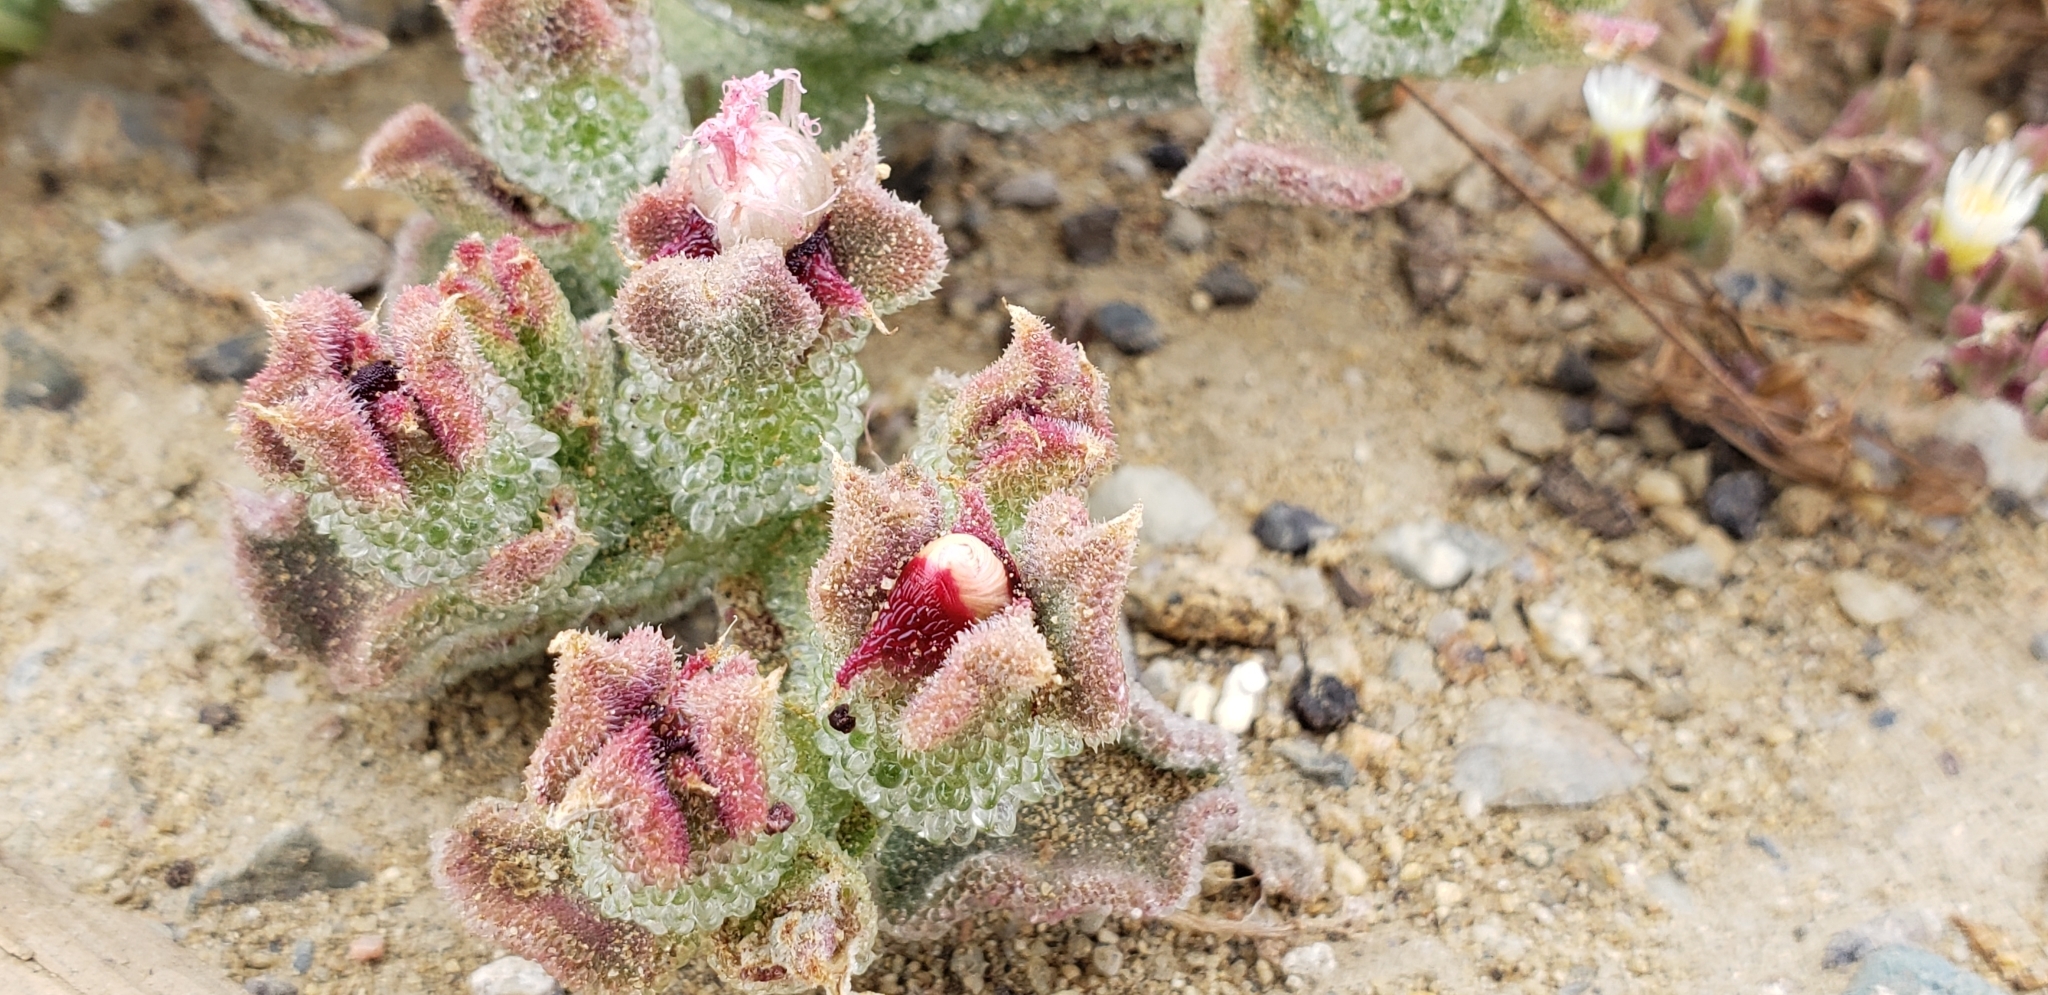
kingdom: Plantae
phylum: Tracheophyta
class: Magnoliopsida
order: Caryophyllales
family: Aizoaceae
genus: Mesembryanthemum
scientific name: Mesembryanthemum crystallinum
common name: Common iceplant
